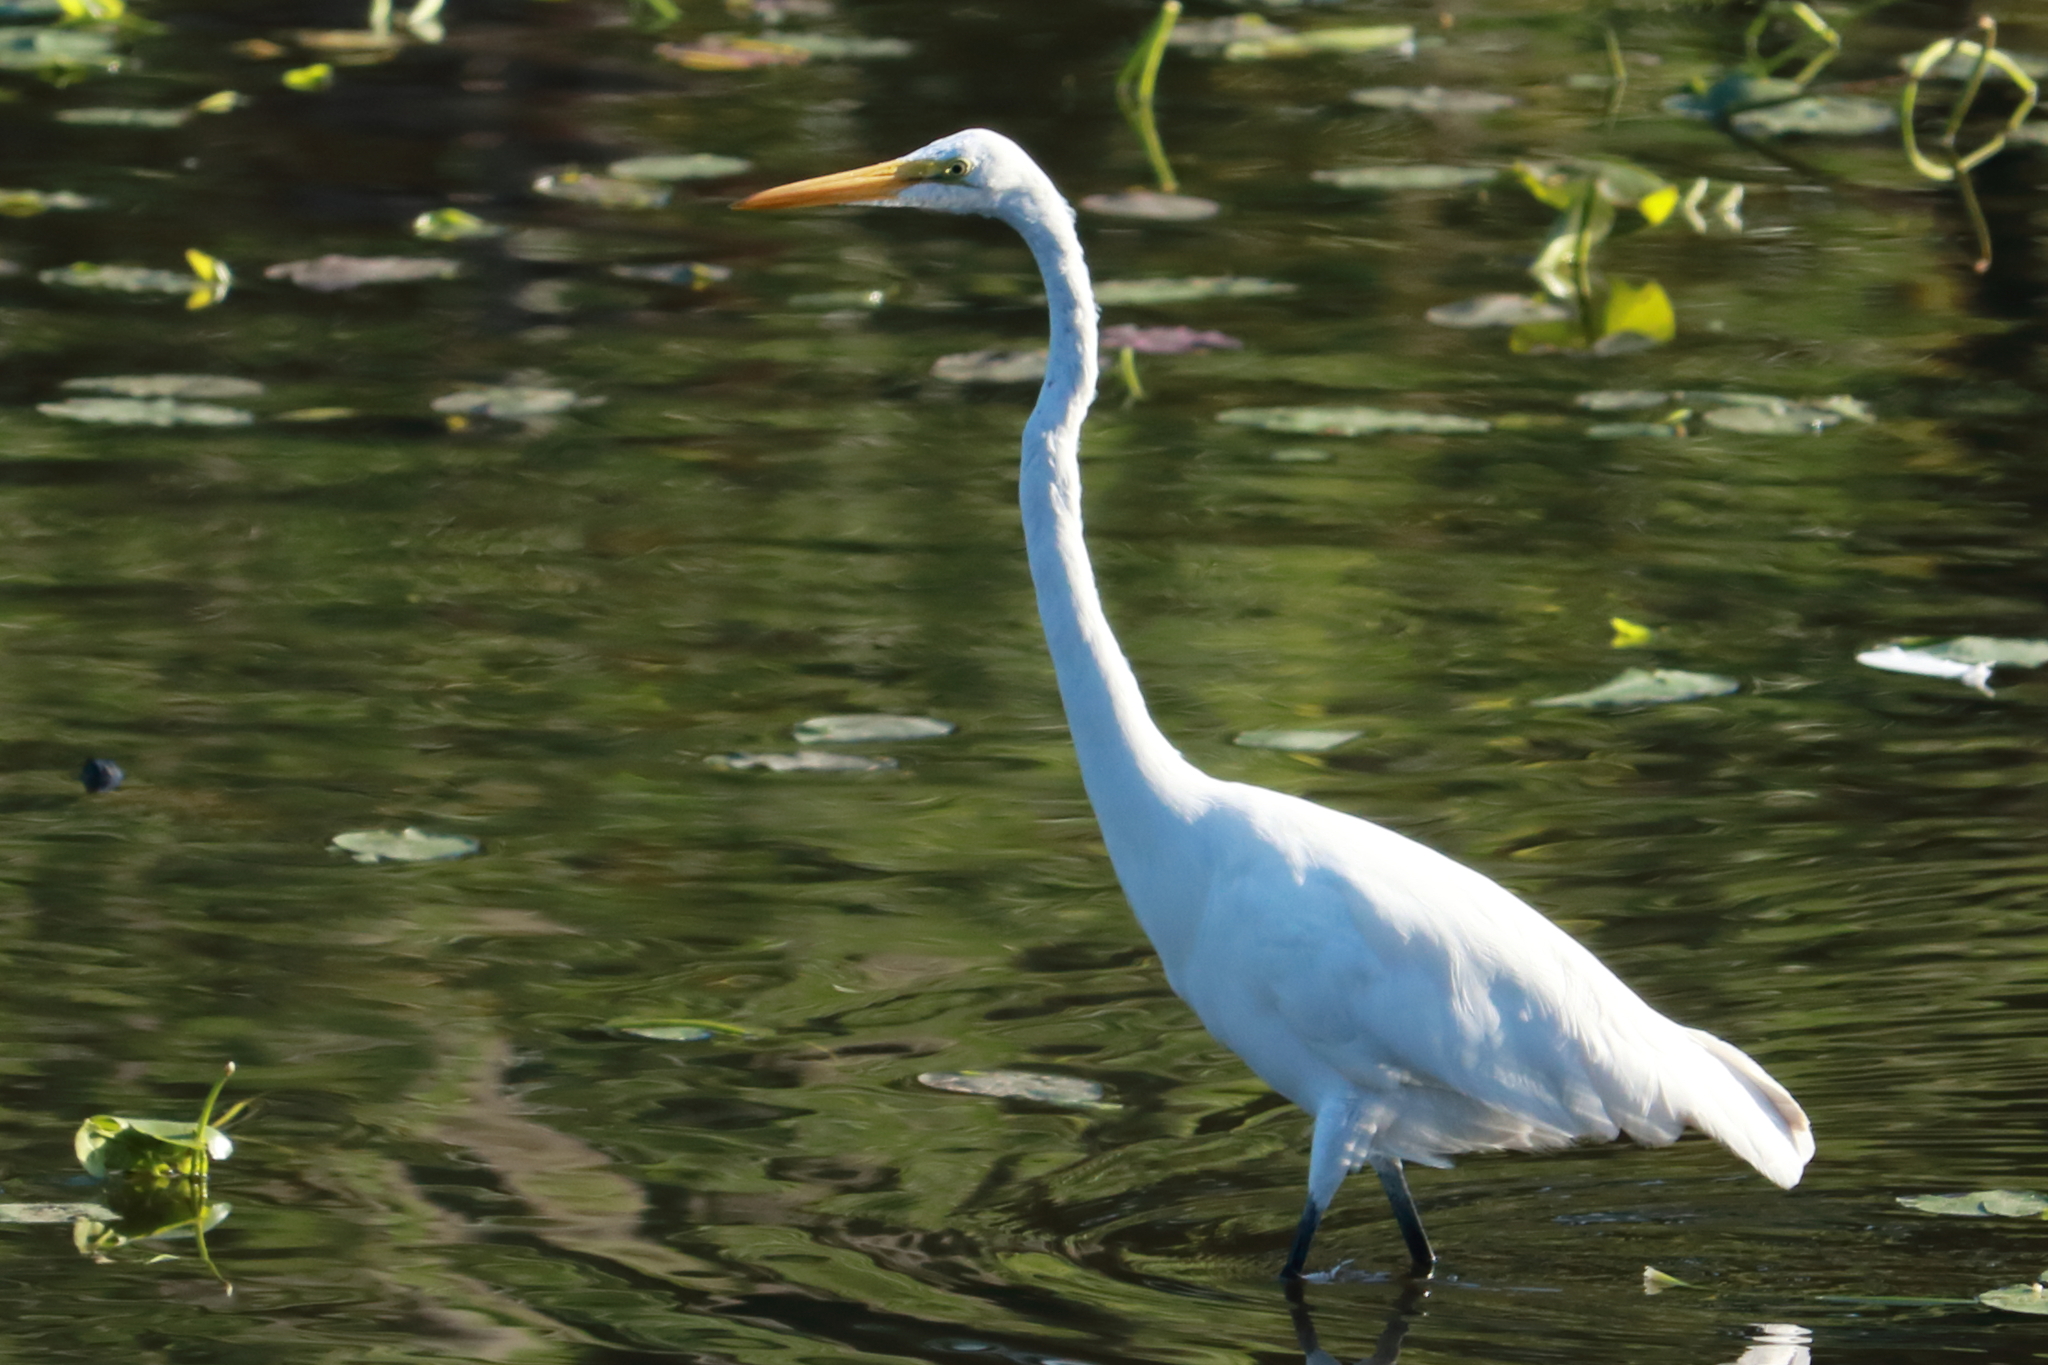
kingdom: Animalia
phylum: Chordata
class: Aves
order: Pelecaniformes
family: Ardeidae
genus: Ardea
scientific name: Ardea alba
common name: Great egret
